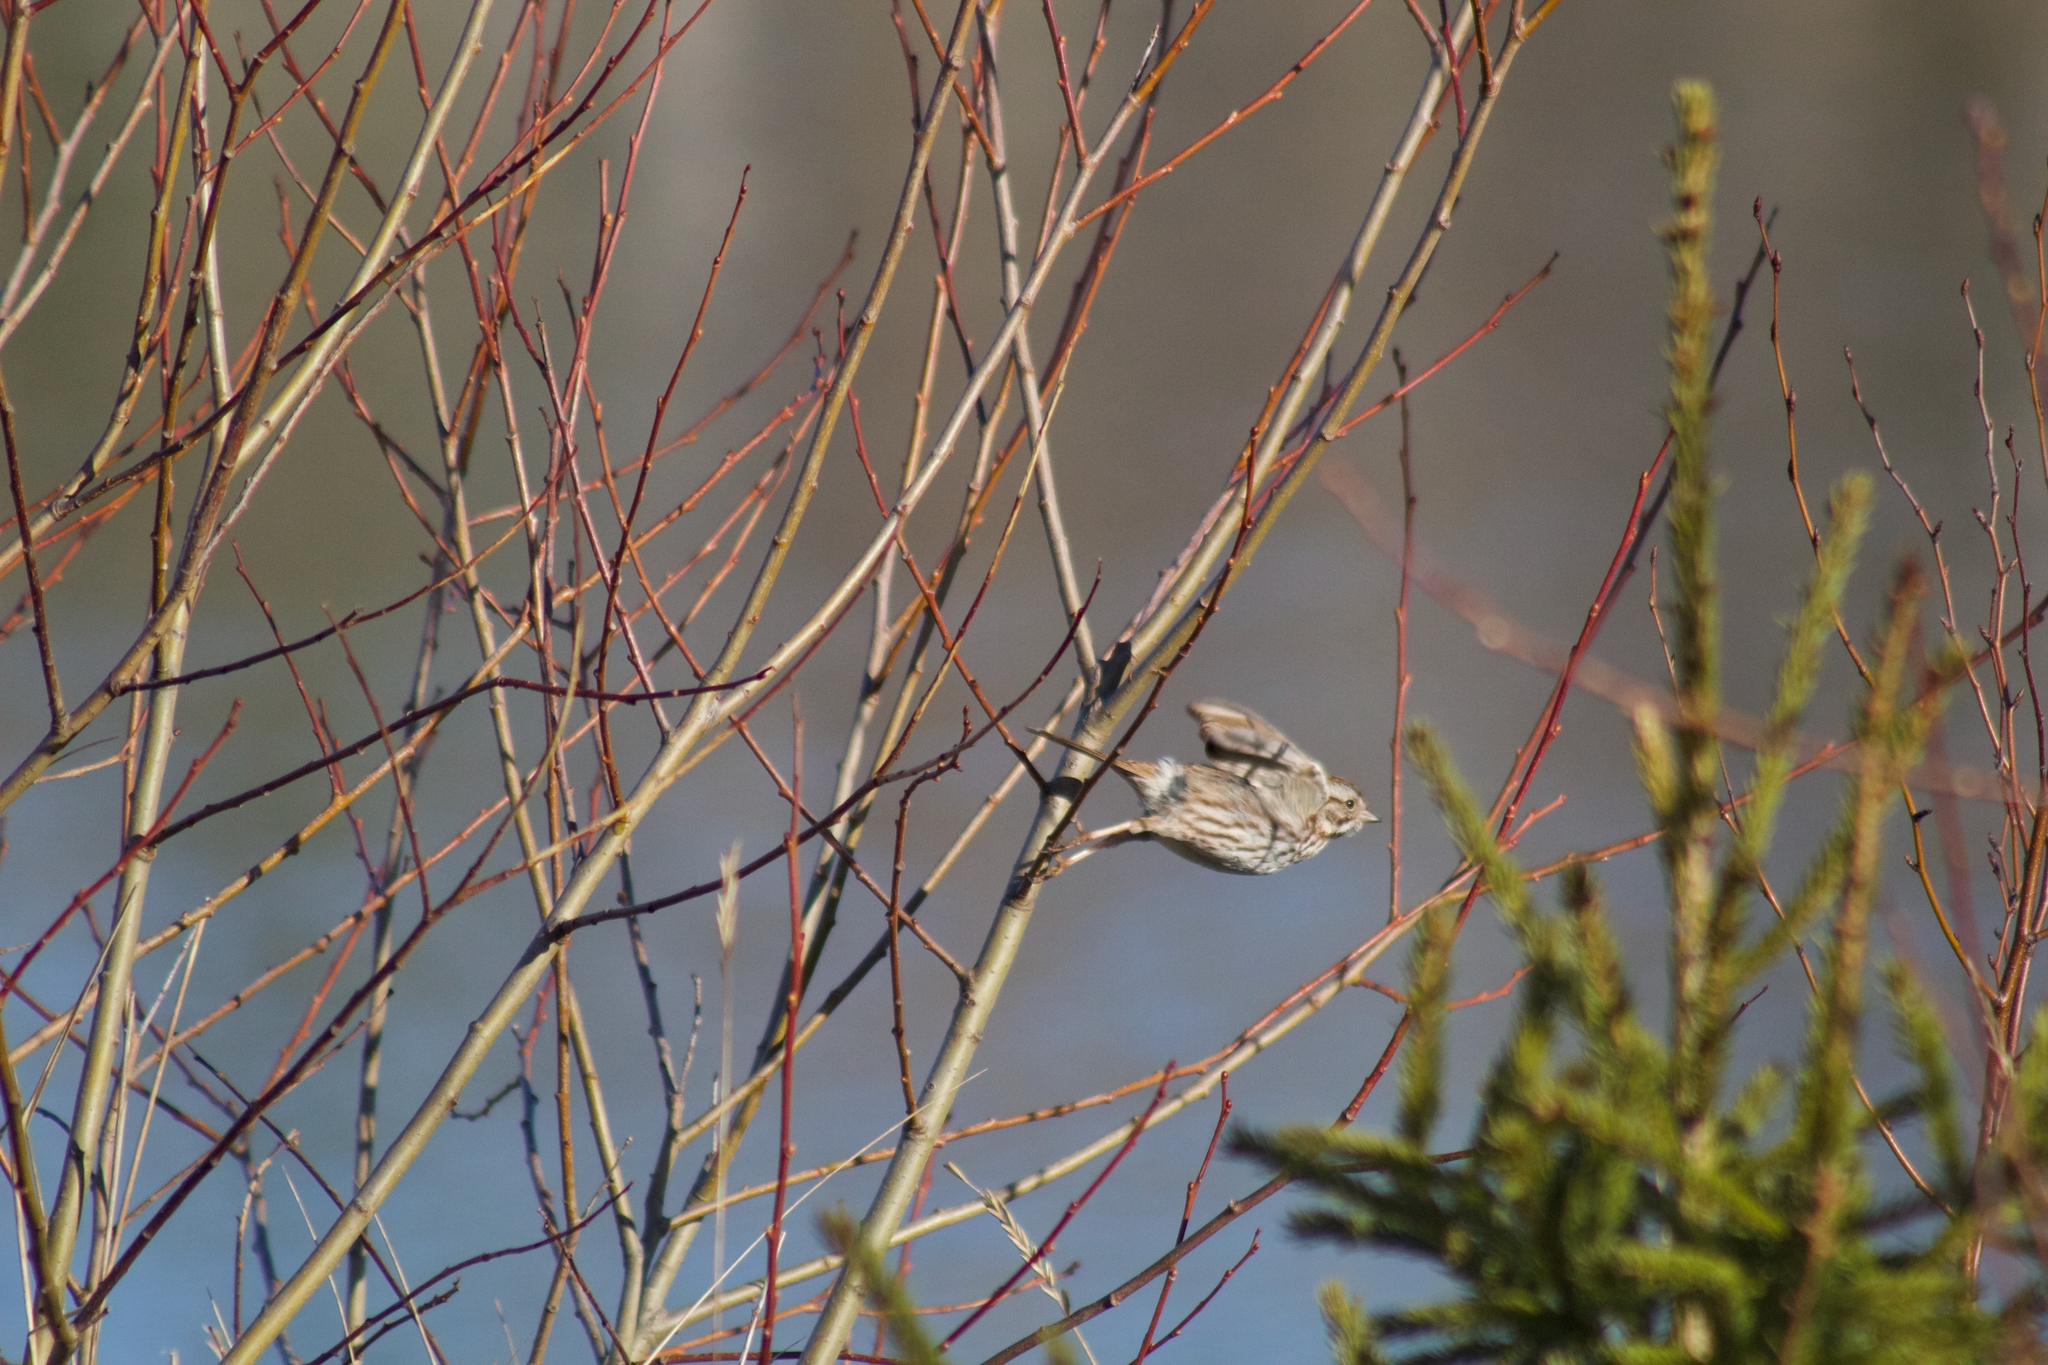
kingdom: Animalia
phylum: Chordata
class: Aves
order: Passeriformes
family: Passerellidae
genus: Melospiza
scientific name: Melospiza melodia
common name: Song sparrow
